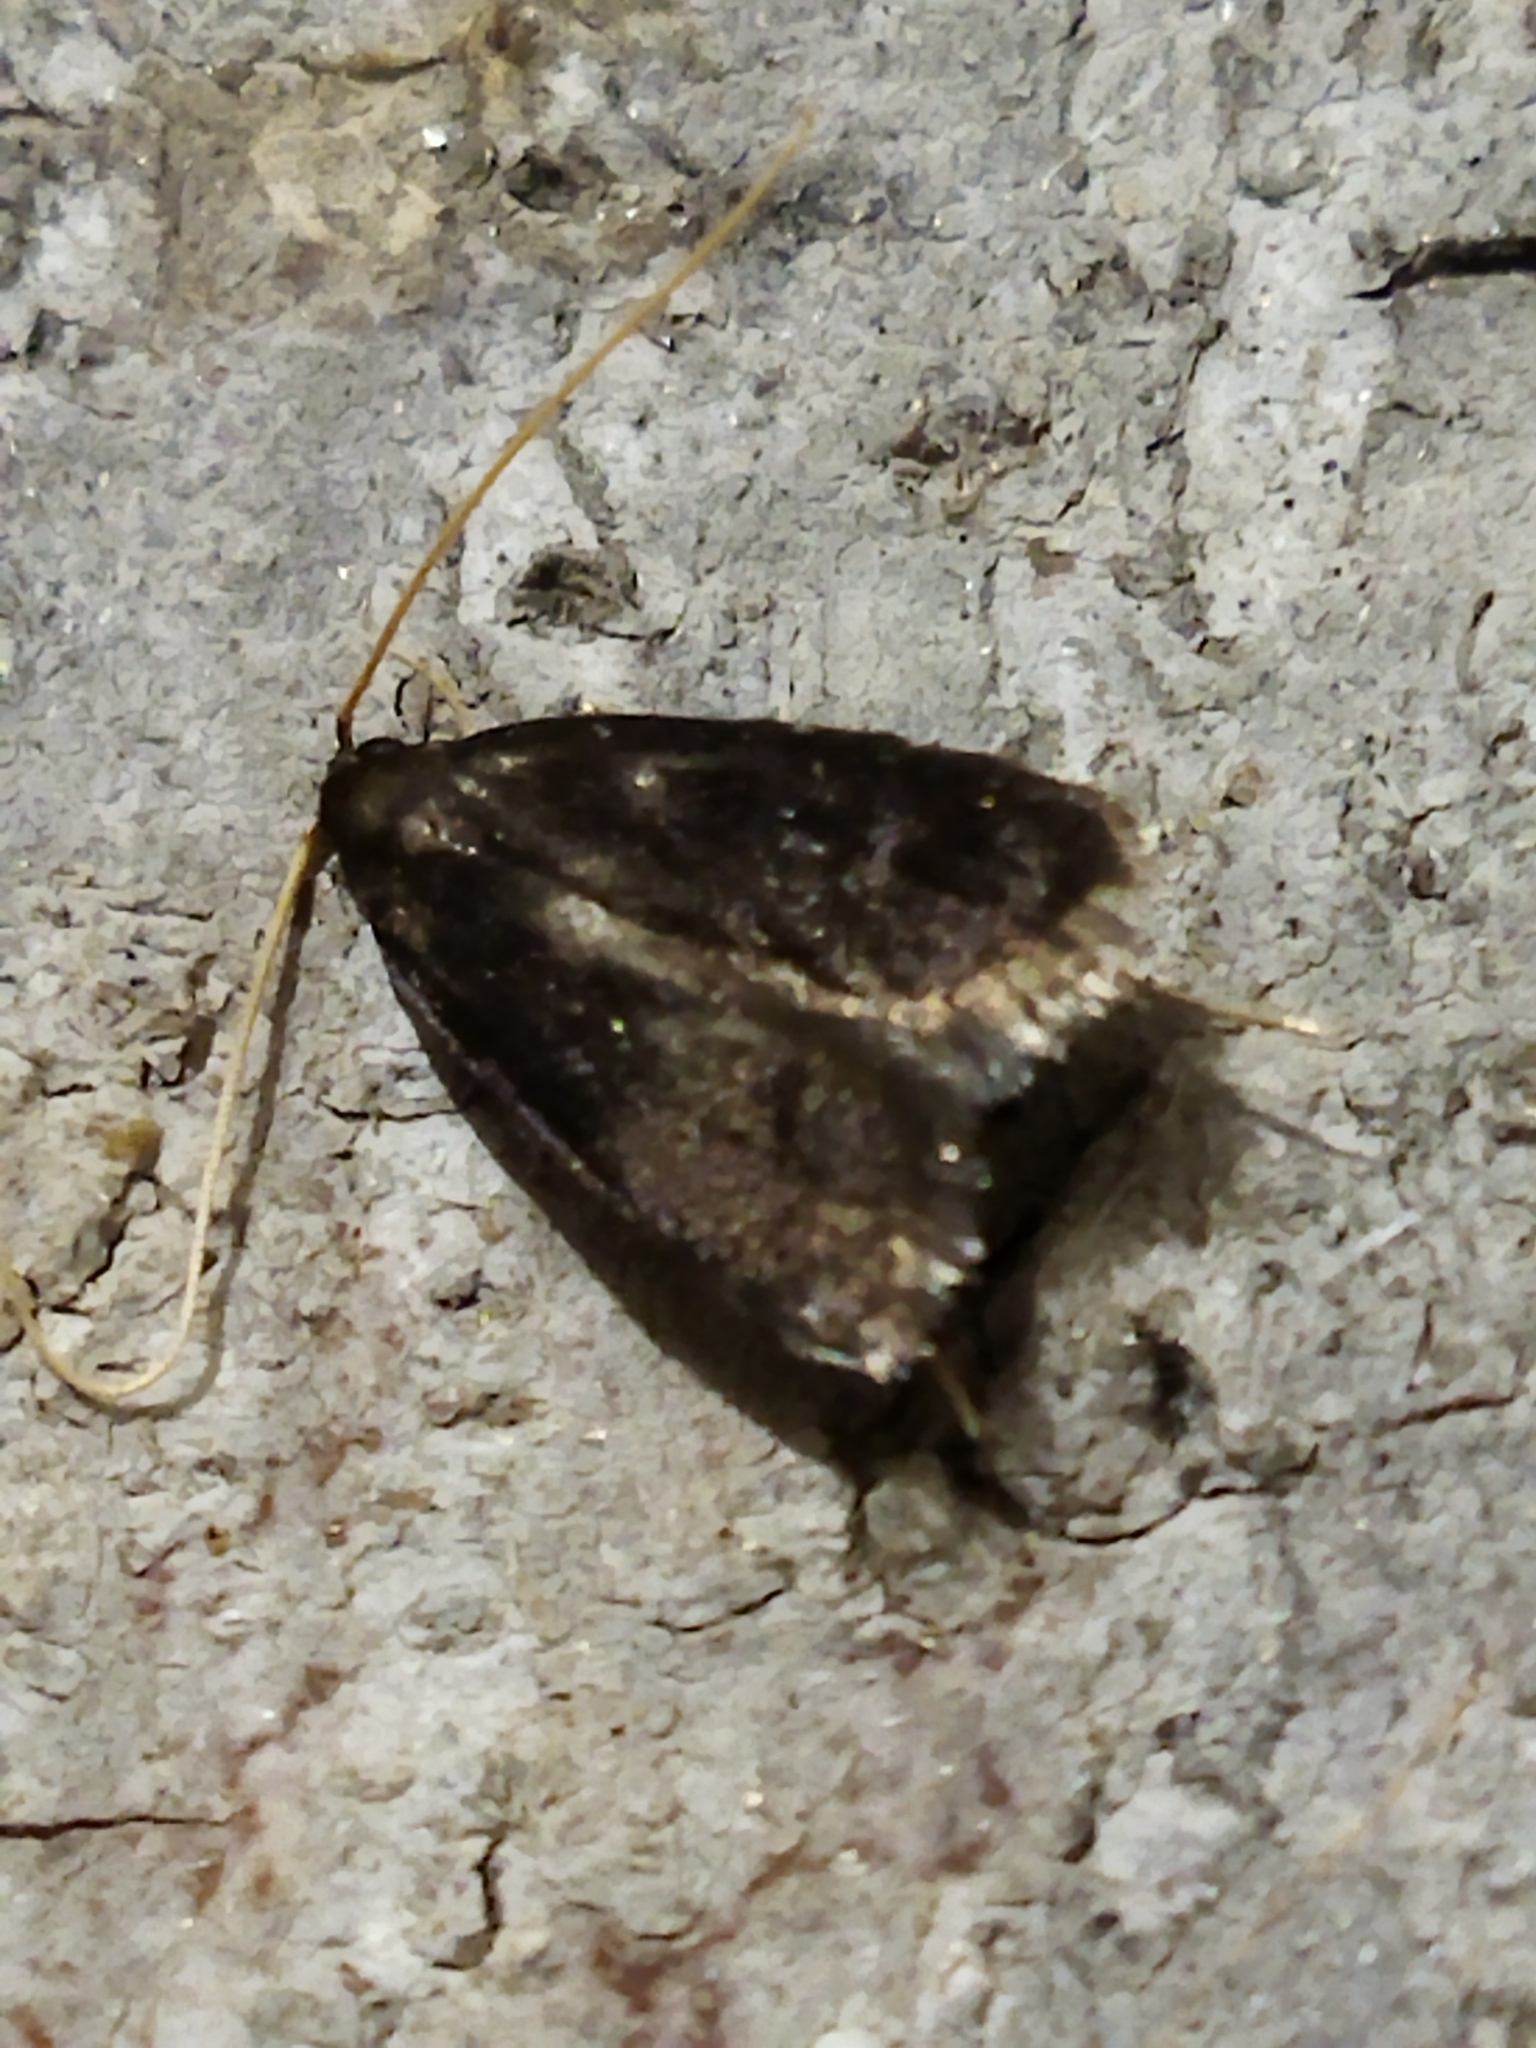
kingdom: Animalia
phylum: Arthropoda
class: Insecta
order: Lepidoptera
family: Lecithoceridae
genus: Lecithocera
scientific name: Lecithocera nigrana
